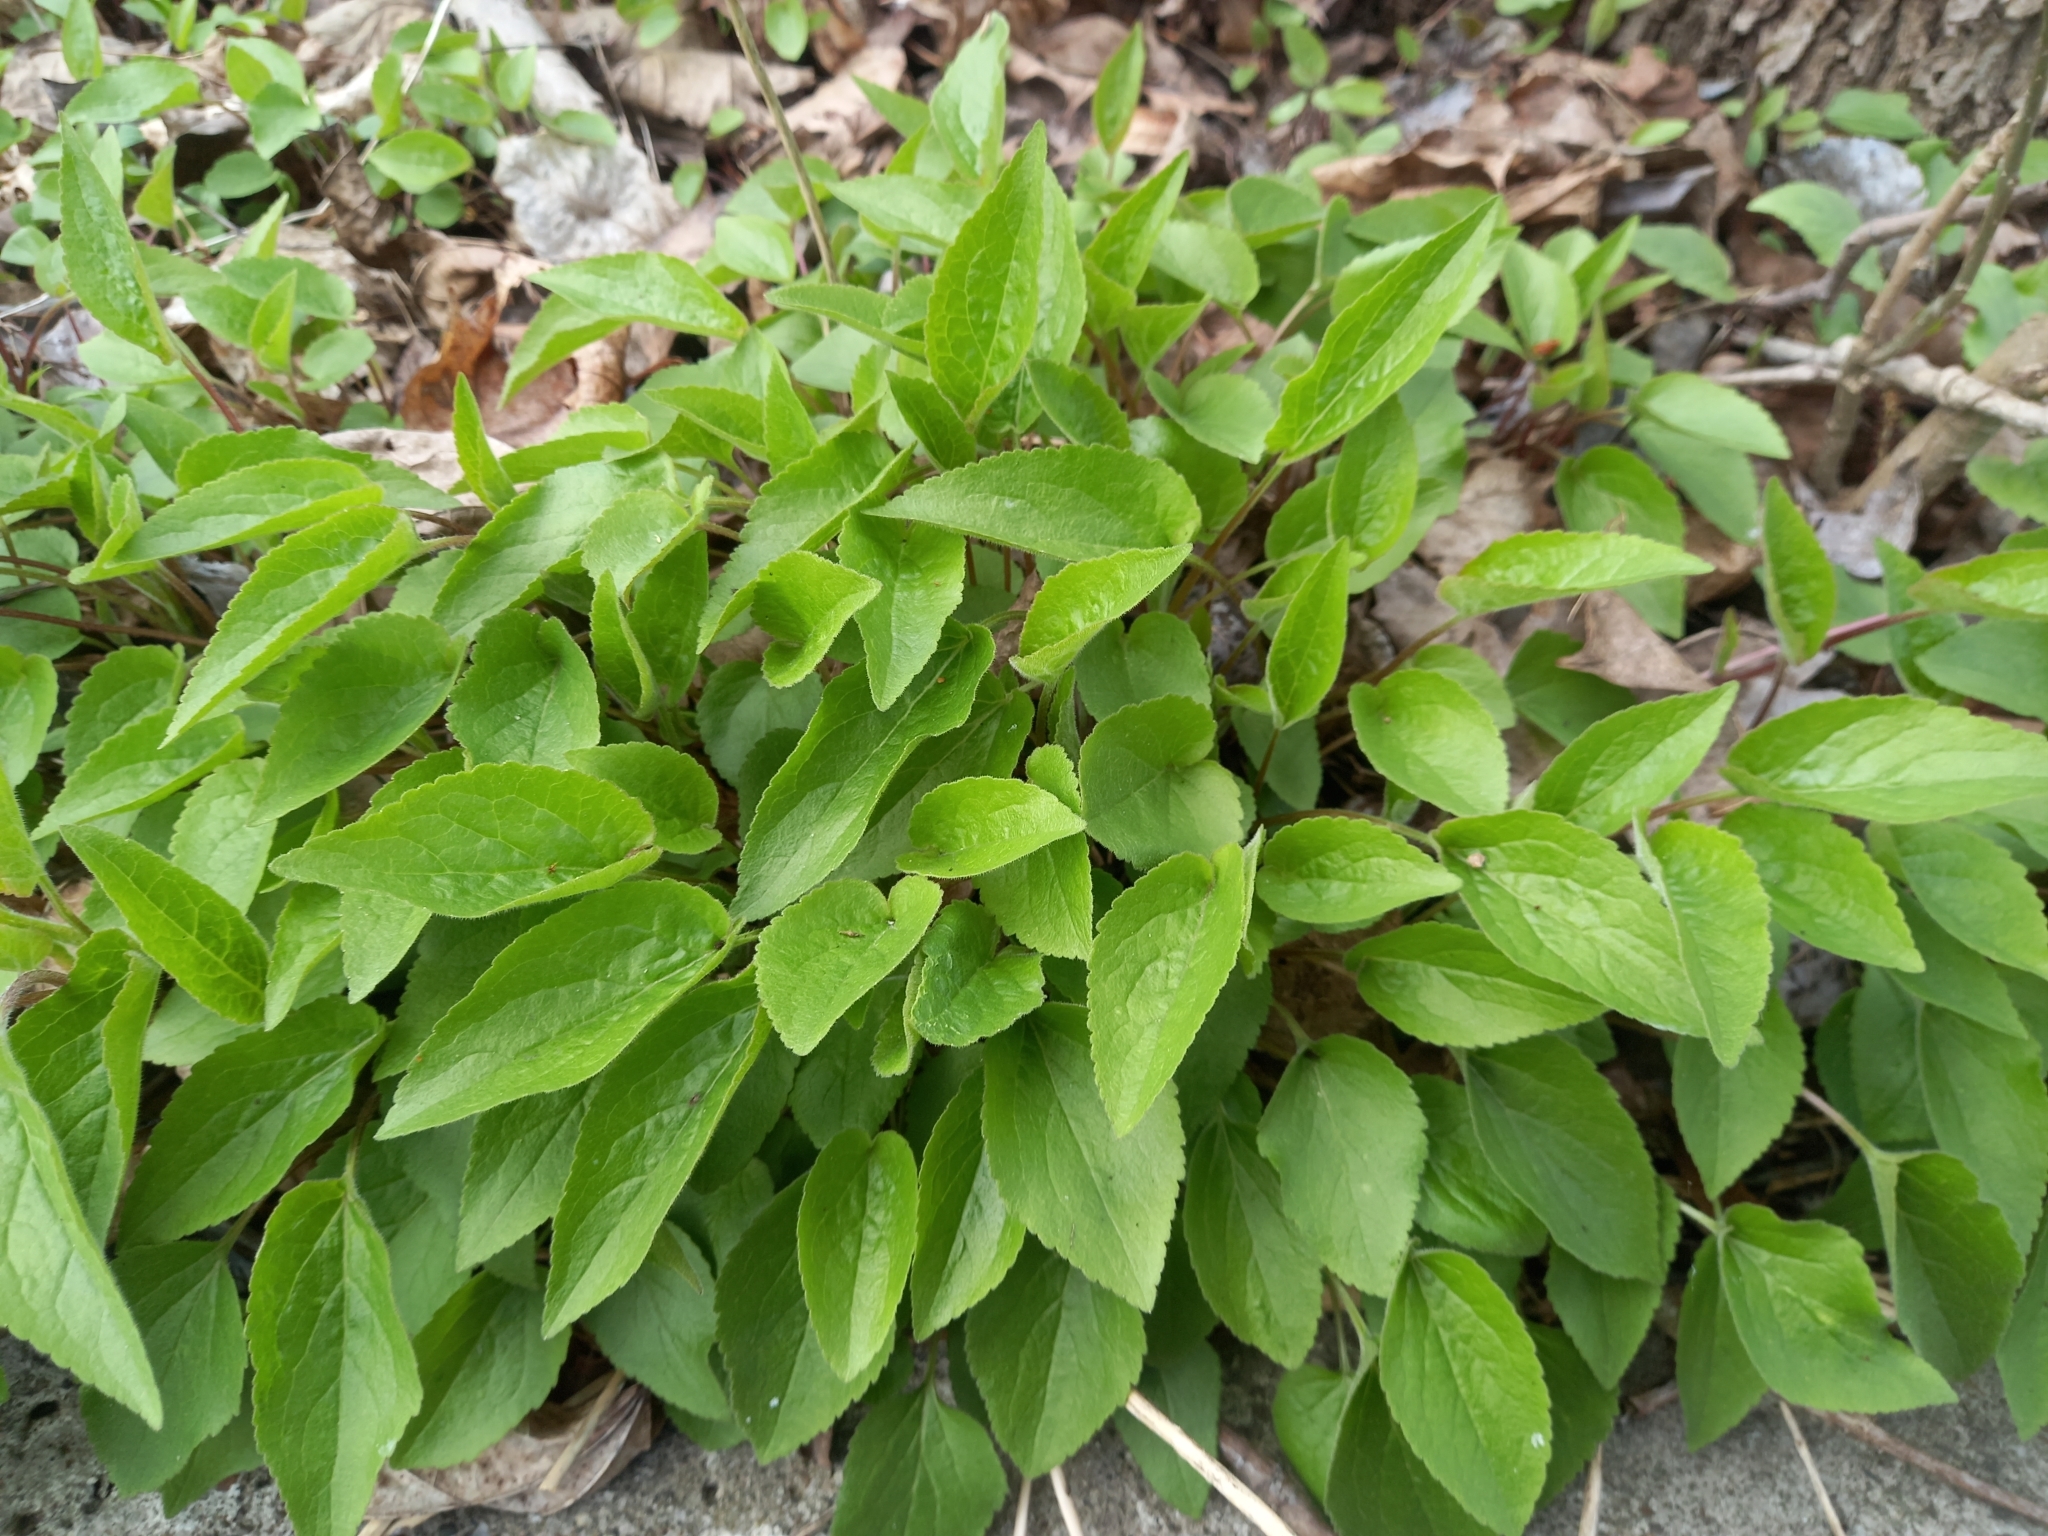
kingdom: Plantae
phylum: Tracheophyta
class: Magnoliopsida
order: Asterales
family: Campanulaceae
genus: Campanula
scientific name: Campanula rapunculoides
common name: Creeping bellflower
